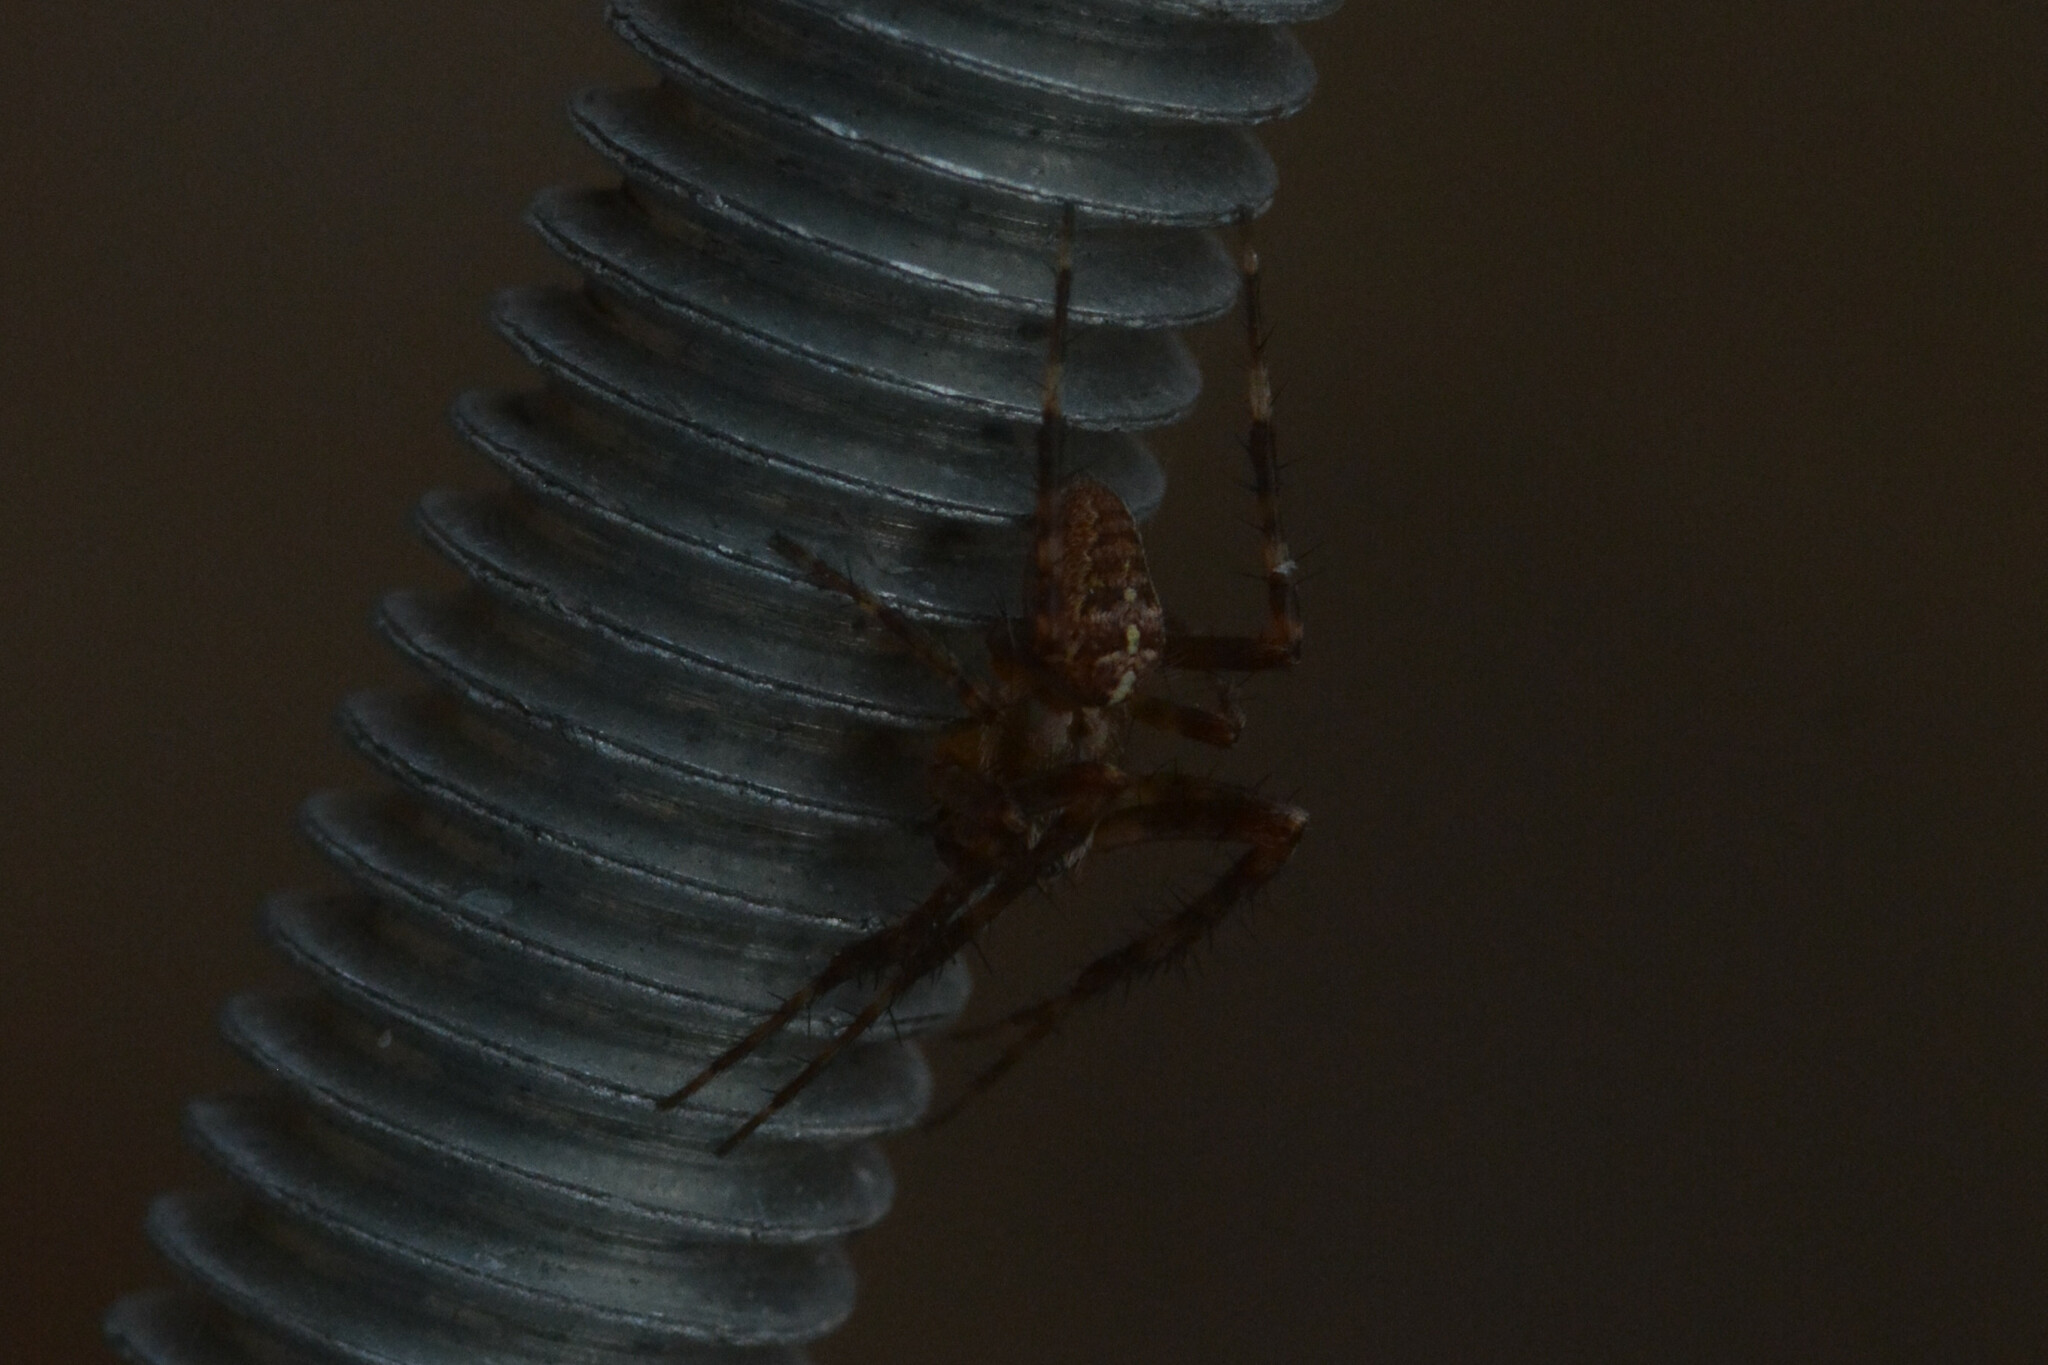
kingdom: Animalia
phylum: Arthropoda
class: Arachnida
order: Araneae
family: Araneidae
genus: Araneus
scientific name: Araneus diadematus
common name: Cross orbweaver
